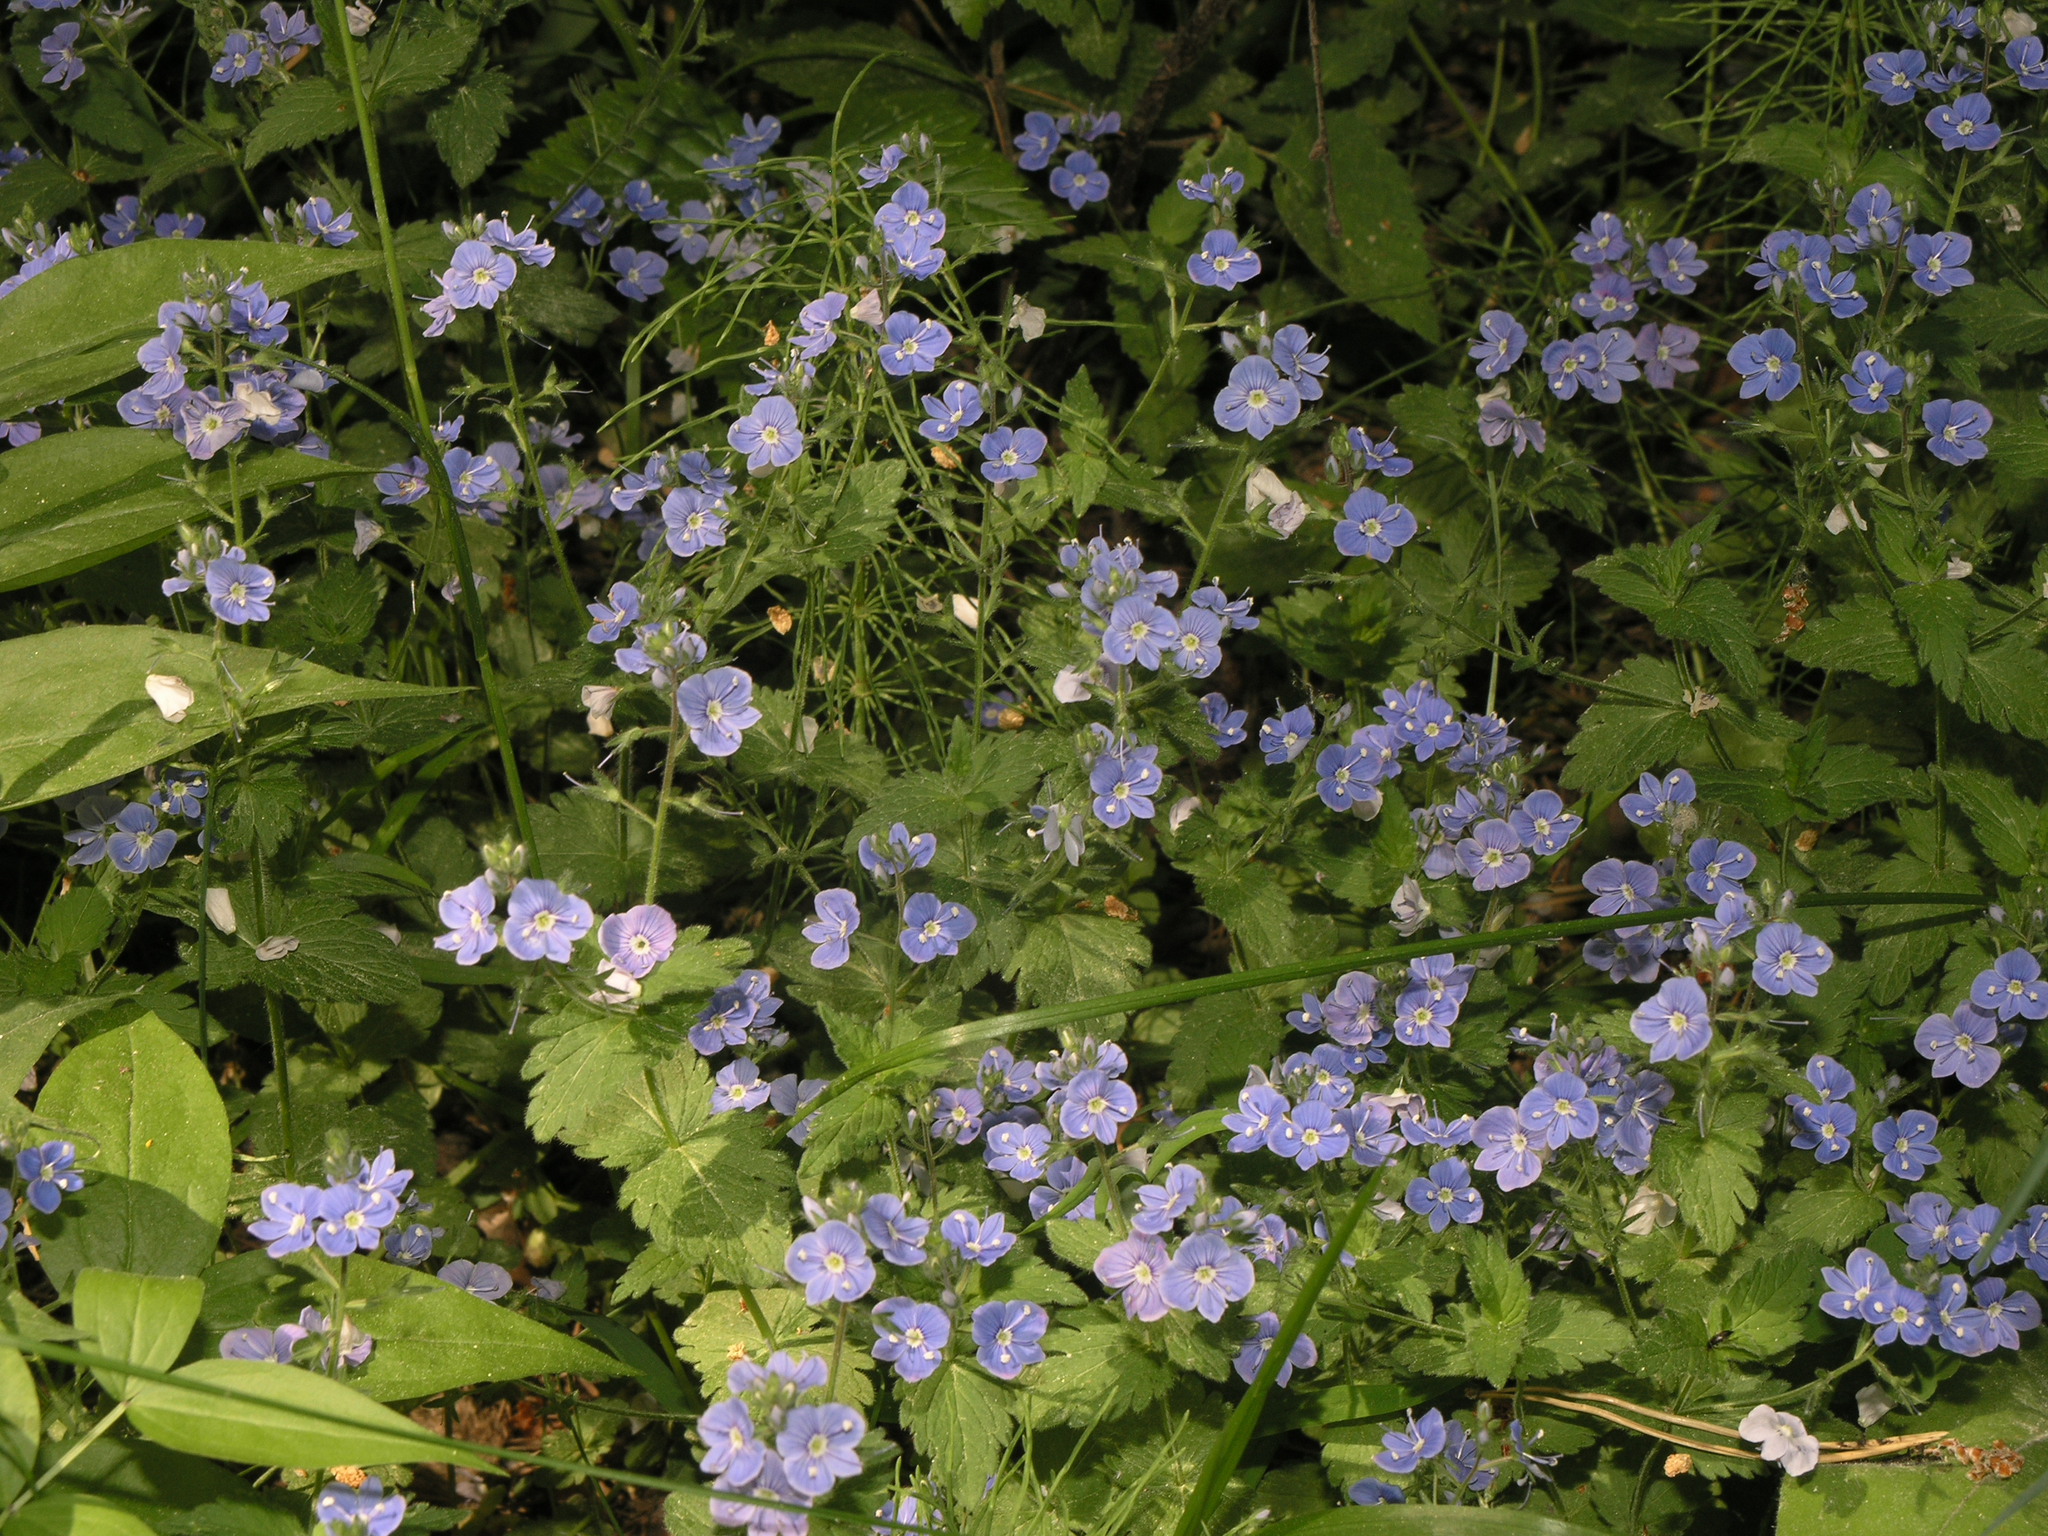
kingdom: Plantae
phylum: Tracheophyta
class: Magnoliopsida
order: Lamiales
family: Plantaginaceae
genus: Veronica
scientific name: Veronica chamaedrys
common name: Germander speedwell
